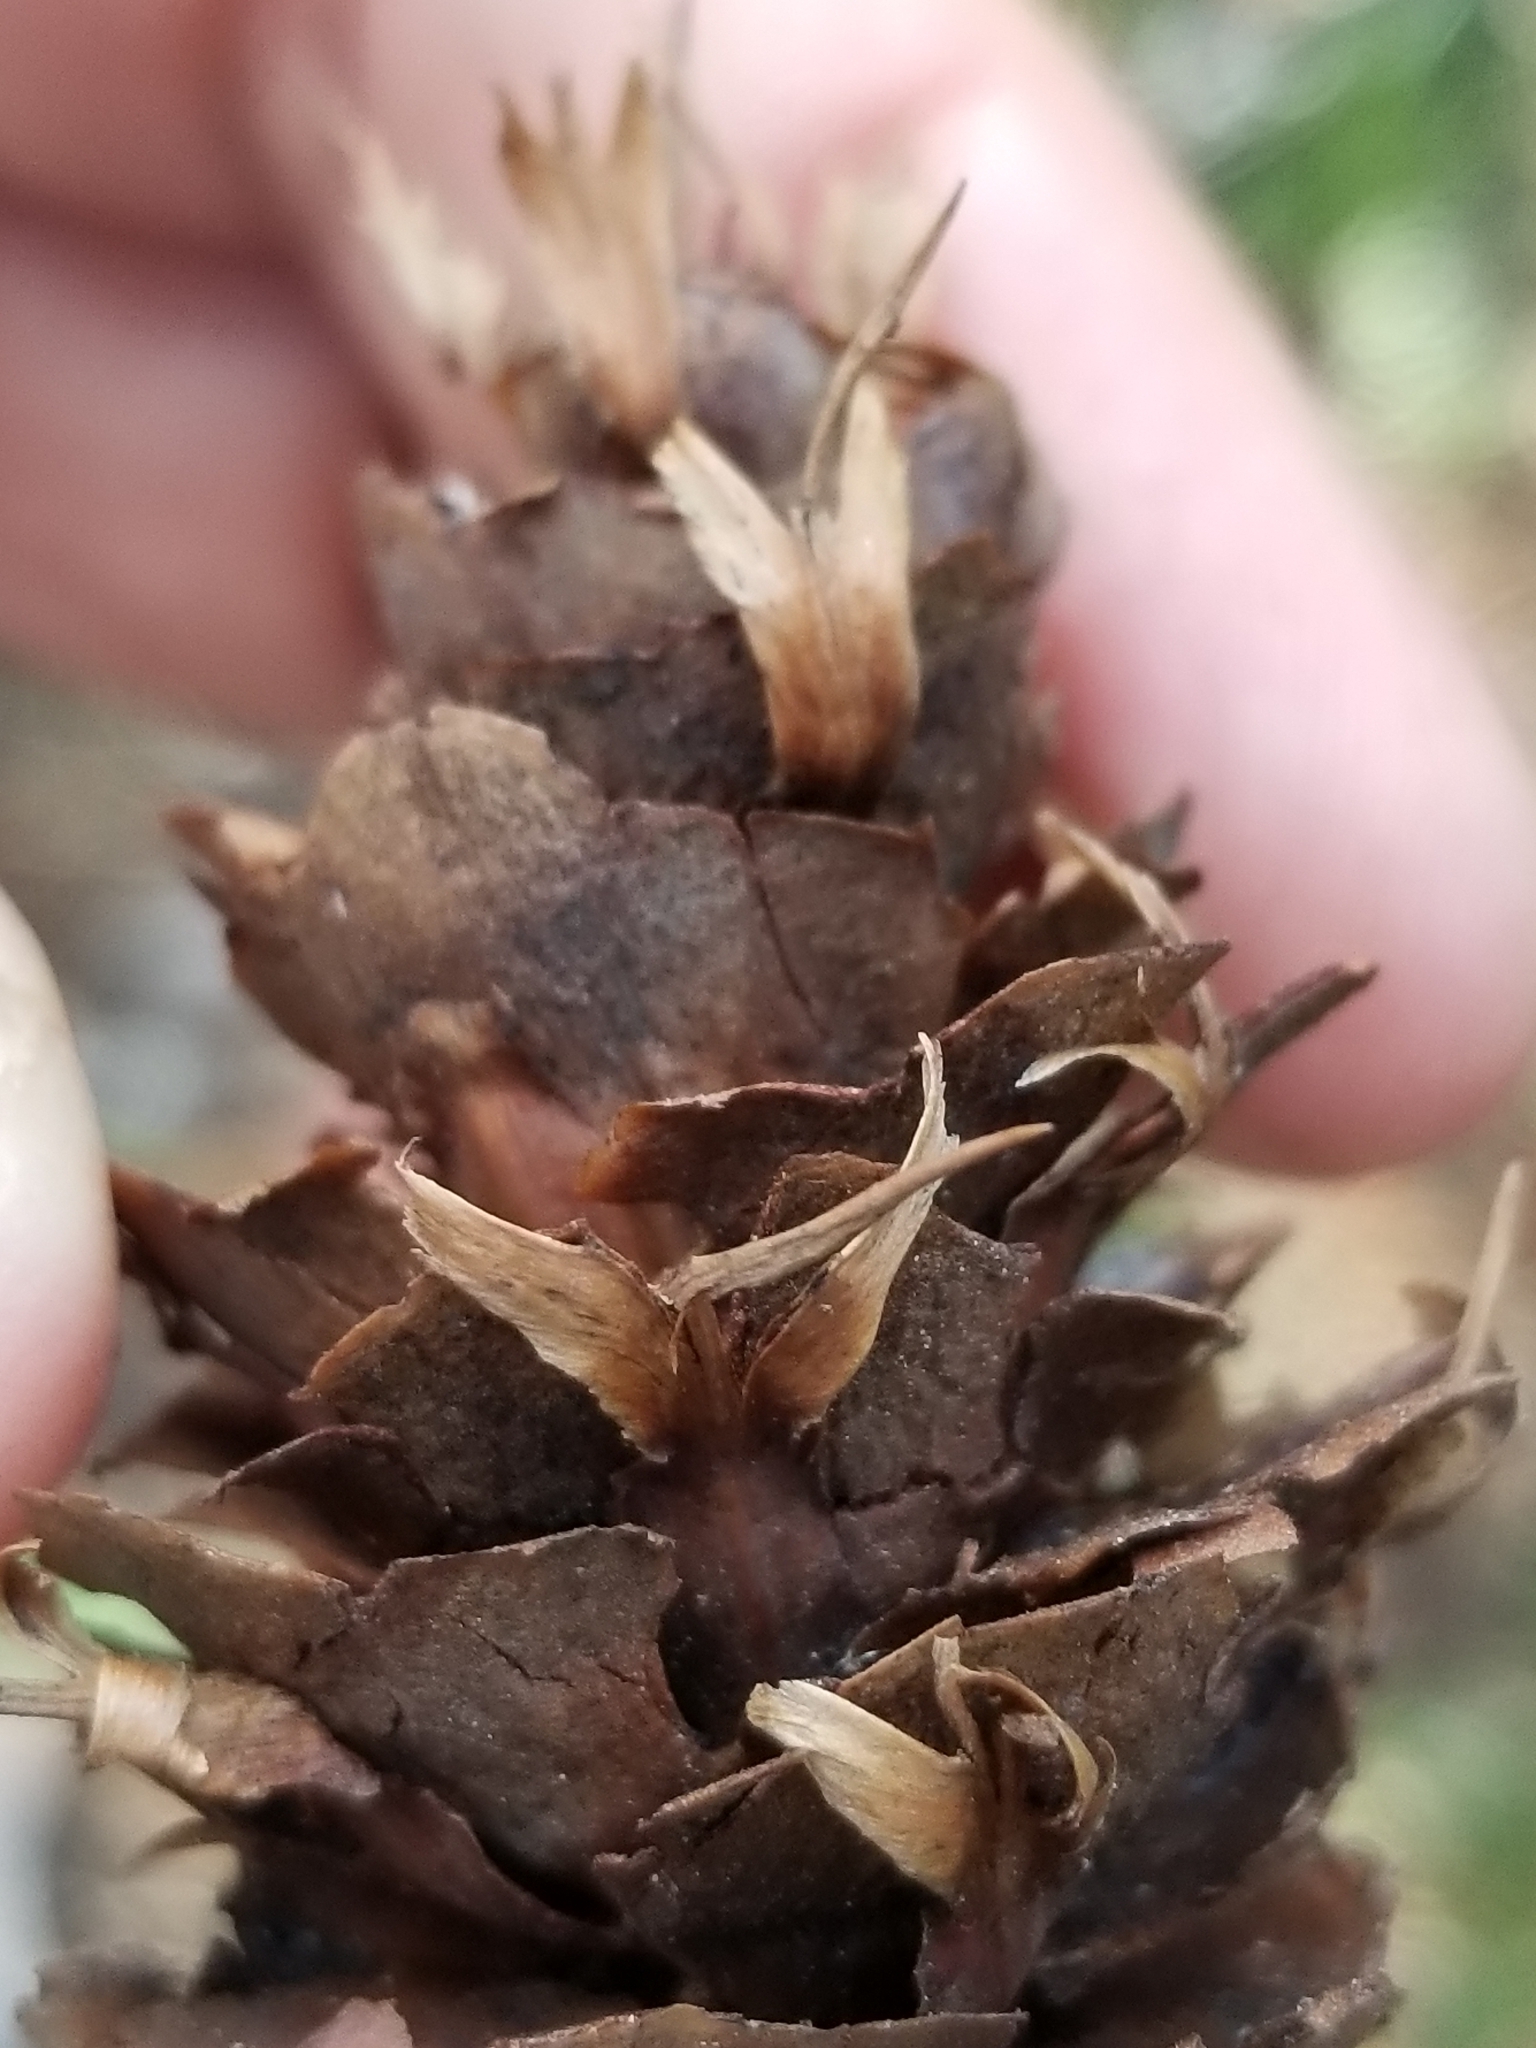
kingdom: Plantae
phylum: Tracheophyta
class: Pinopsida
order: Pinales
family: Pinaceae
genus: Pseudotsuga
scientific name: Pseudotsuga menziesii
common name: Douglas fir
